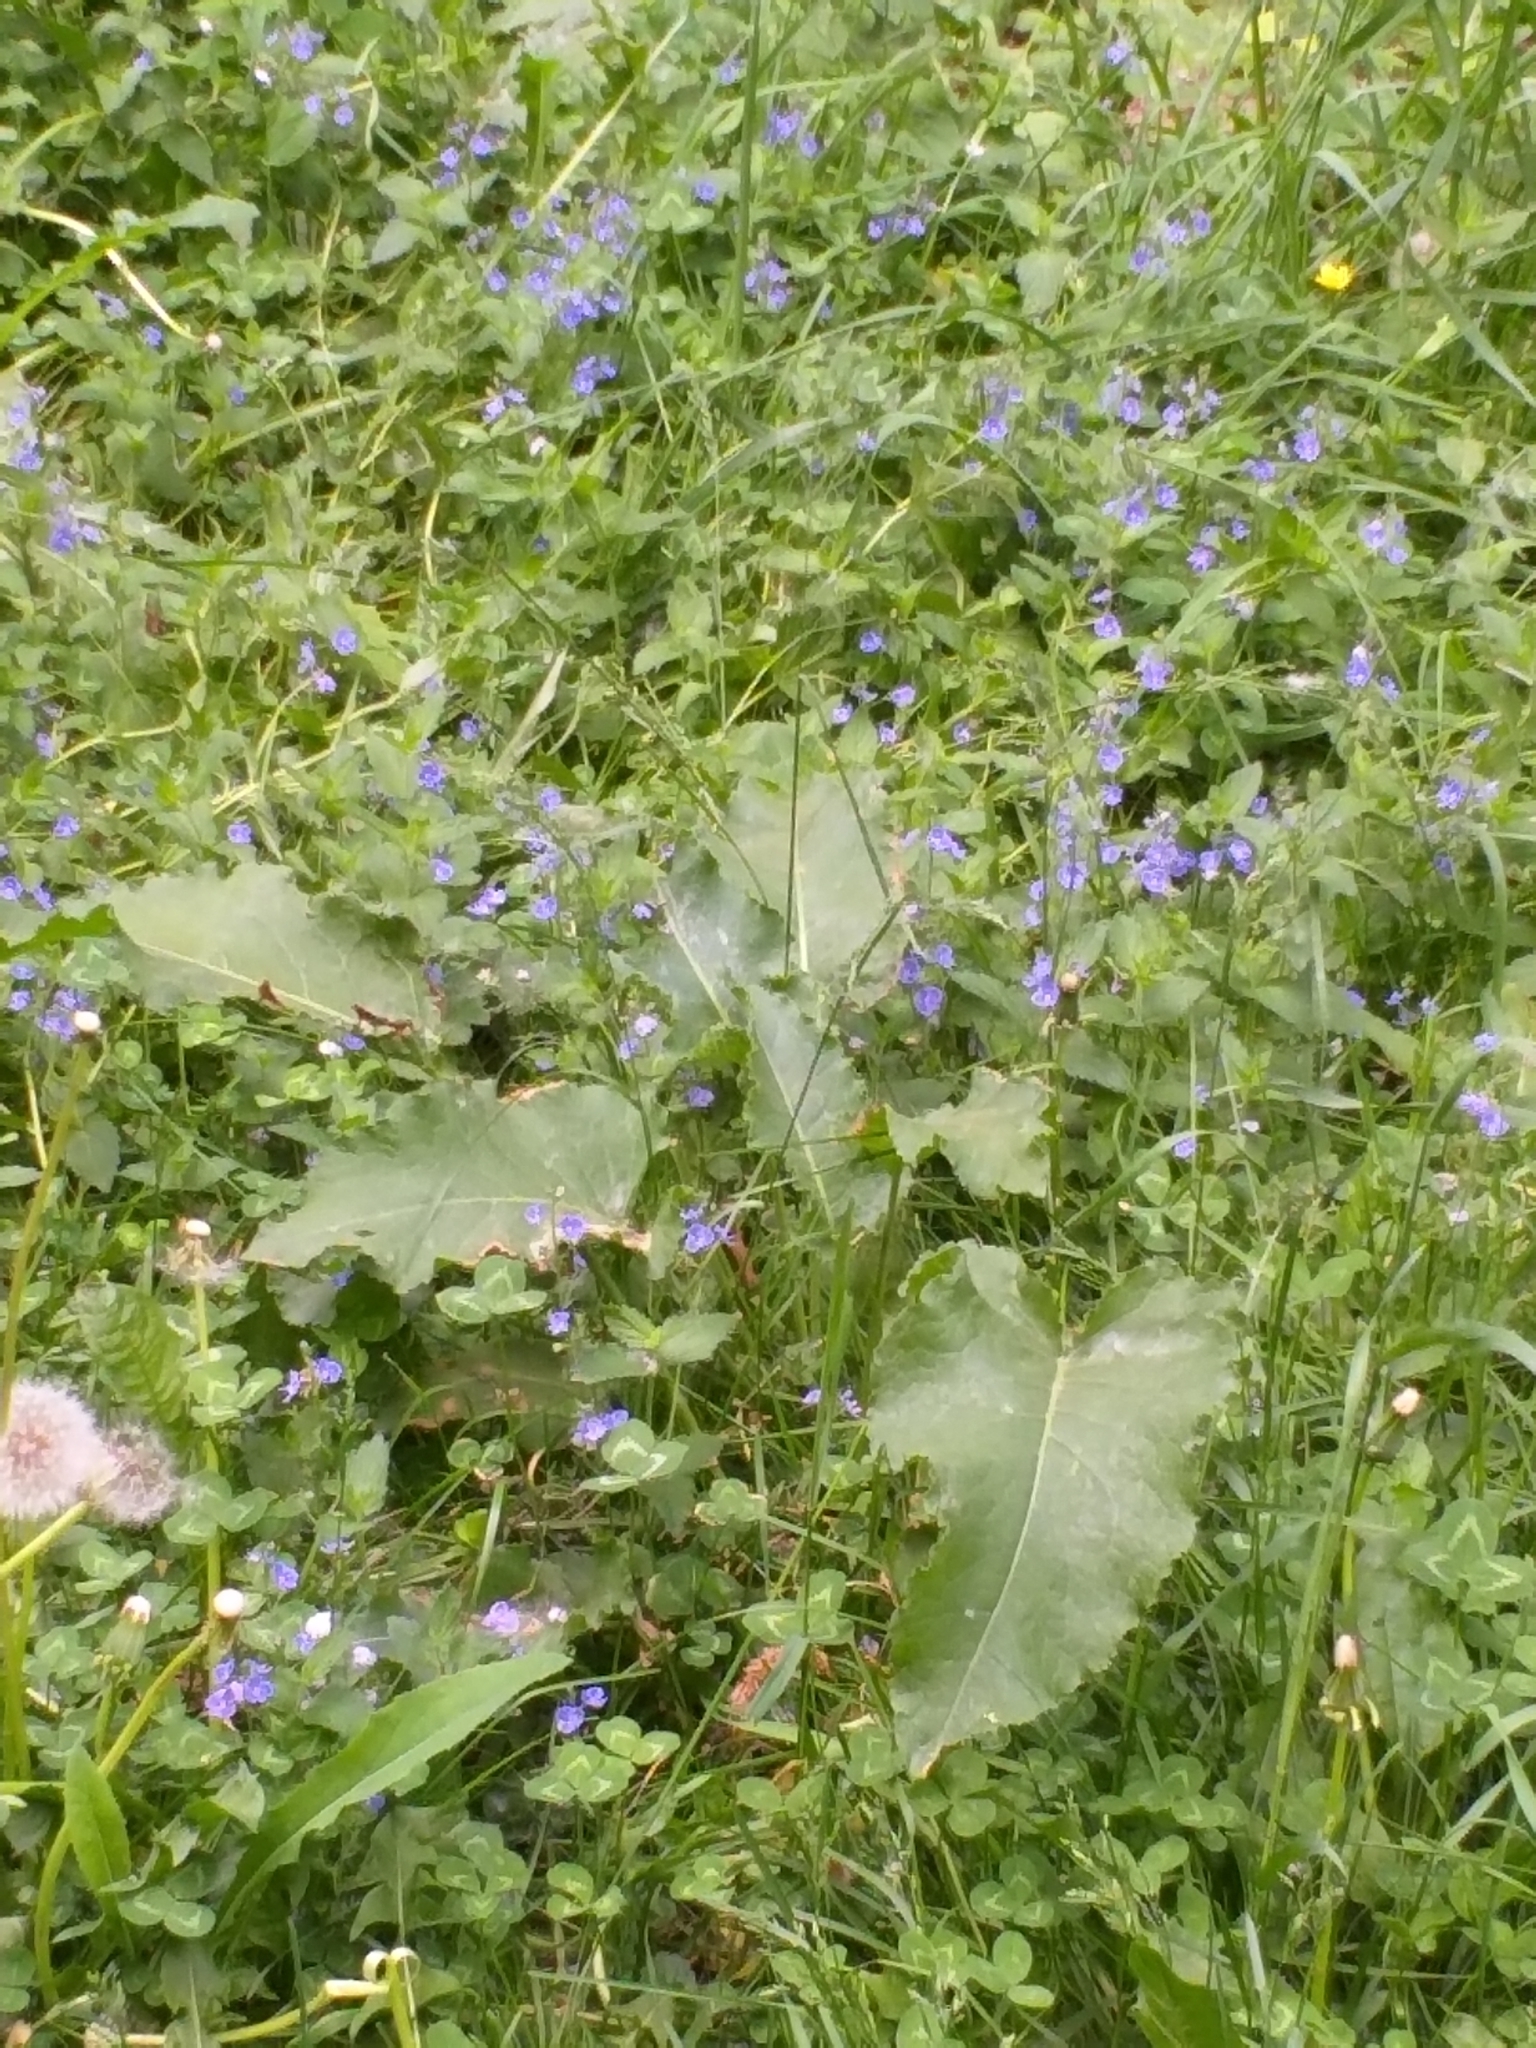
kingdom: Plantae
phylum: Tracheophyta
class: Magnoliopsida
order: Caryophyllales
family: Polygonaceae
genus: Rumex
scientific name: Rumex confertus
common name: Russian dock
